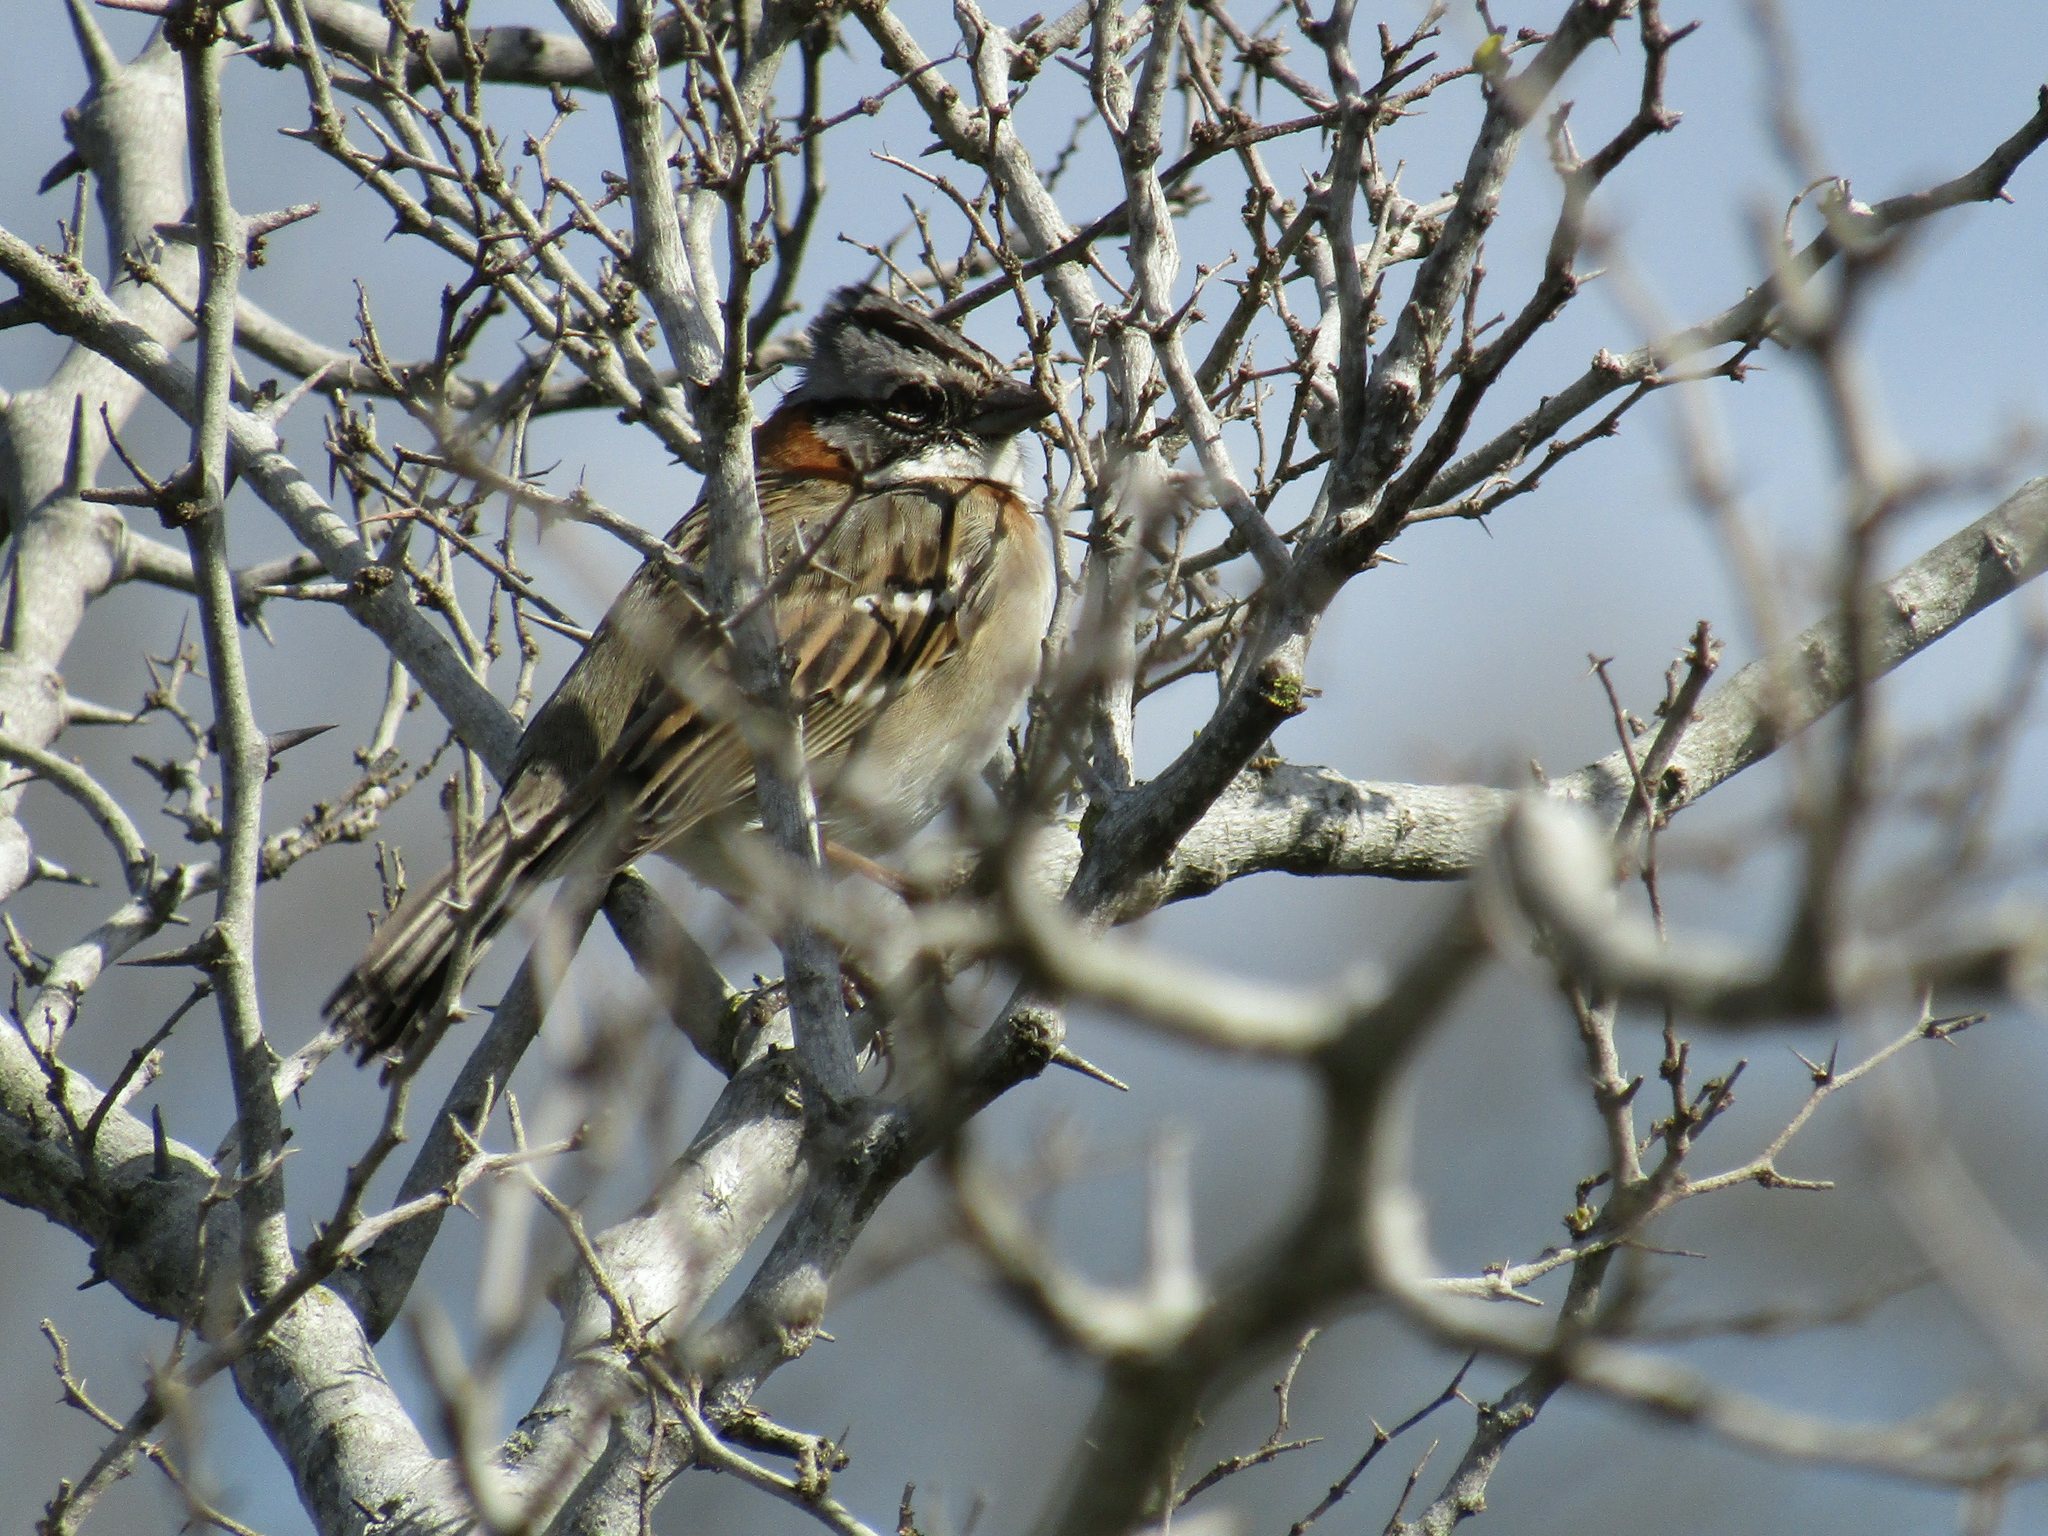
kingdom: Animalia
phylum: Chordata
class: Aves
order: Passeriformes
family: Passerellidae
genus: Zonotrichia
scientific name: Zonotrichia capensis
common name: Rufous-collared sparrow
